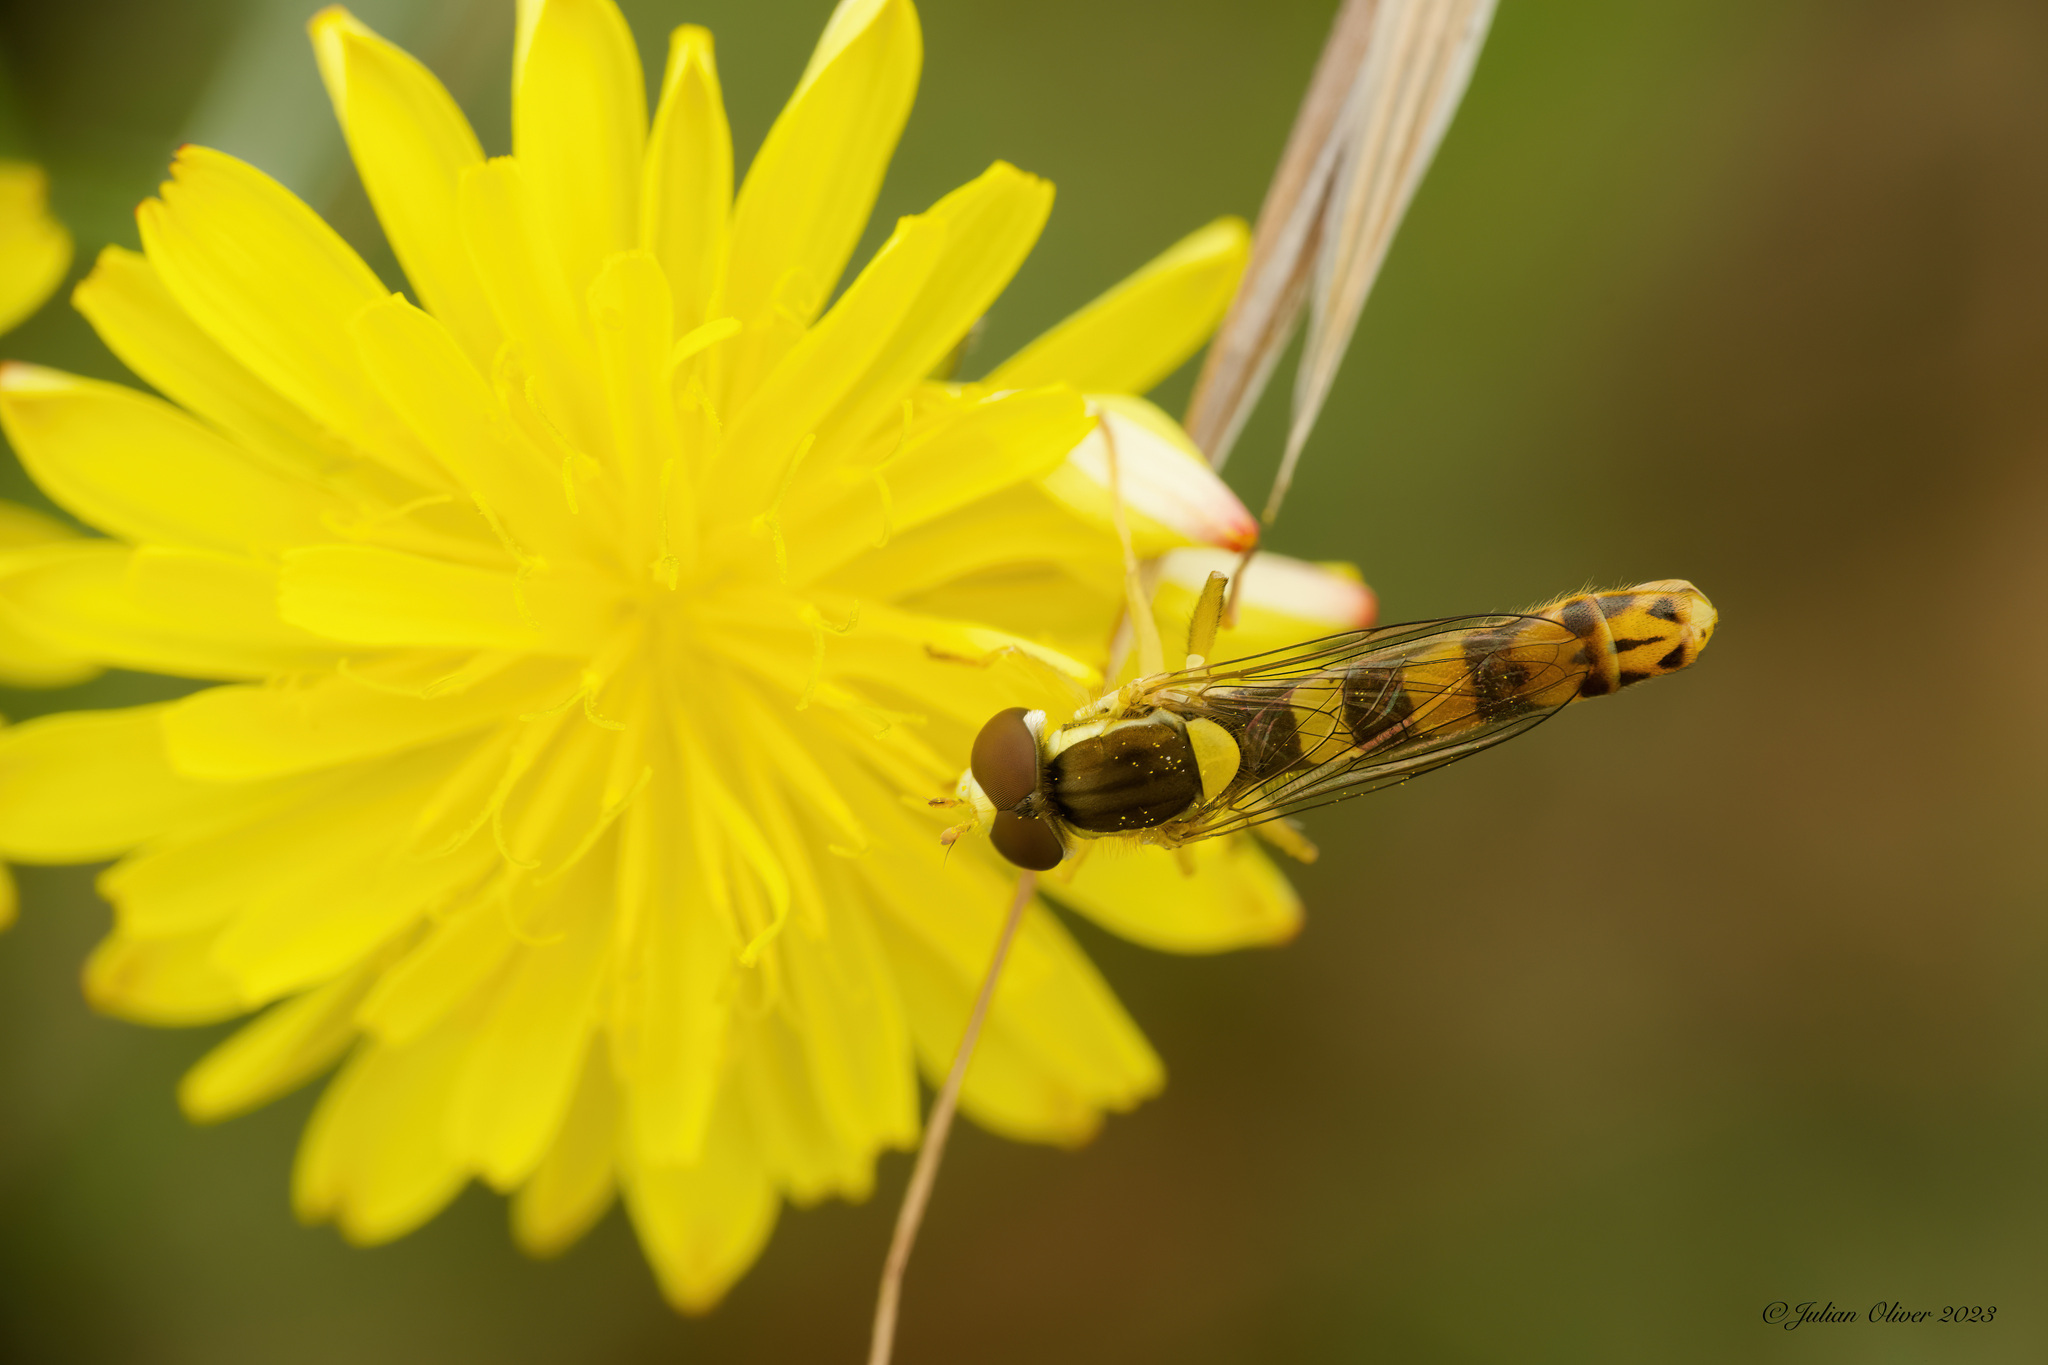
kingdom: Animalia
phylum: Arthropoda
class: Insecta
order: Diptera
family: Syrphidae
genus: Sphaerophoria
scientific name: Sphaerophoria scripta
